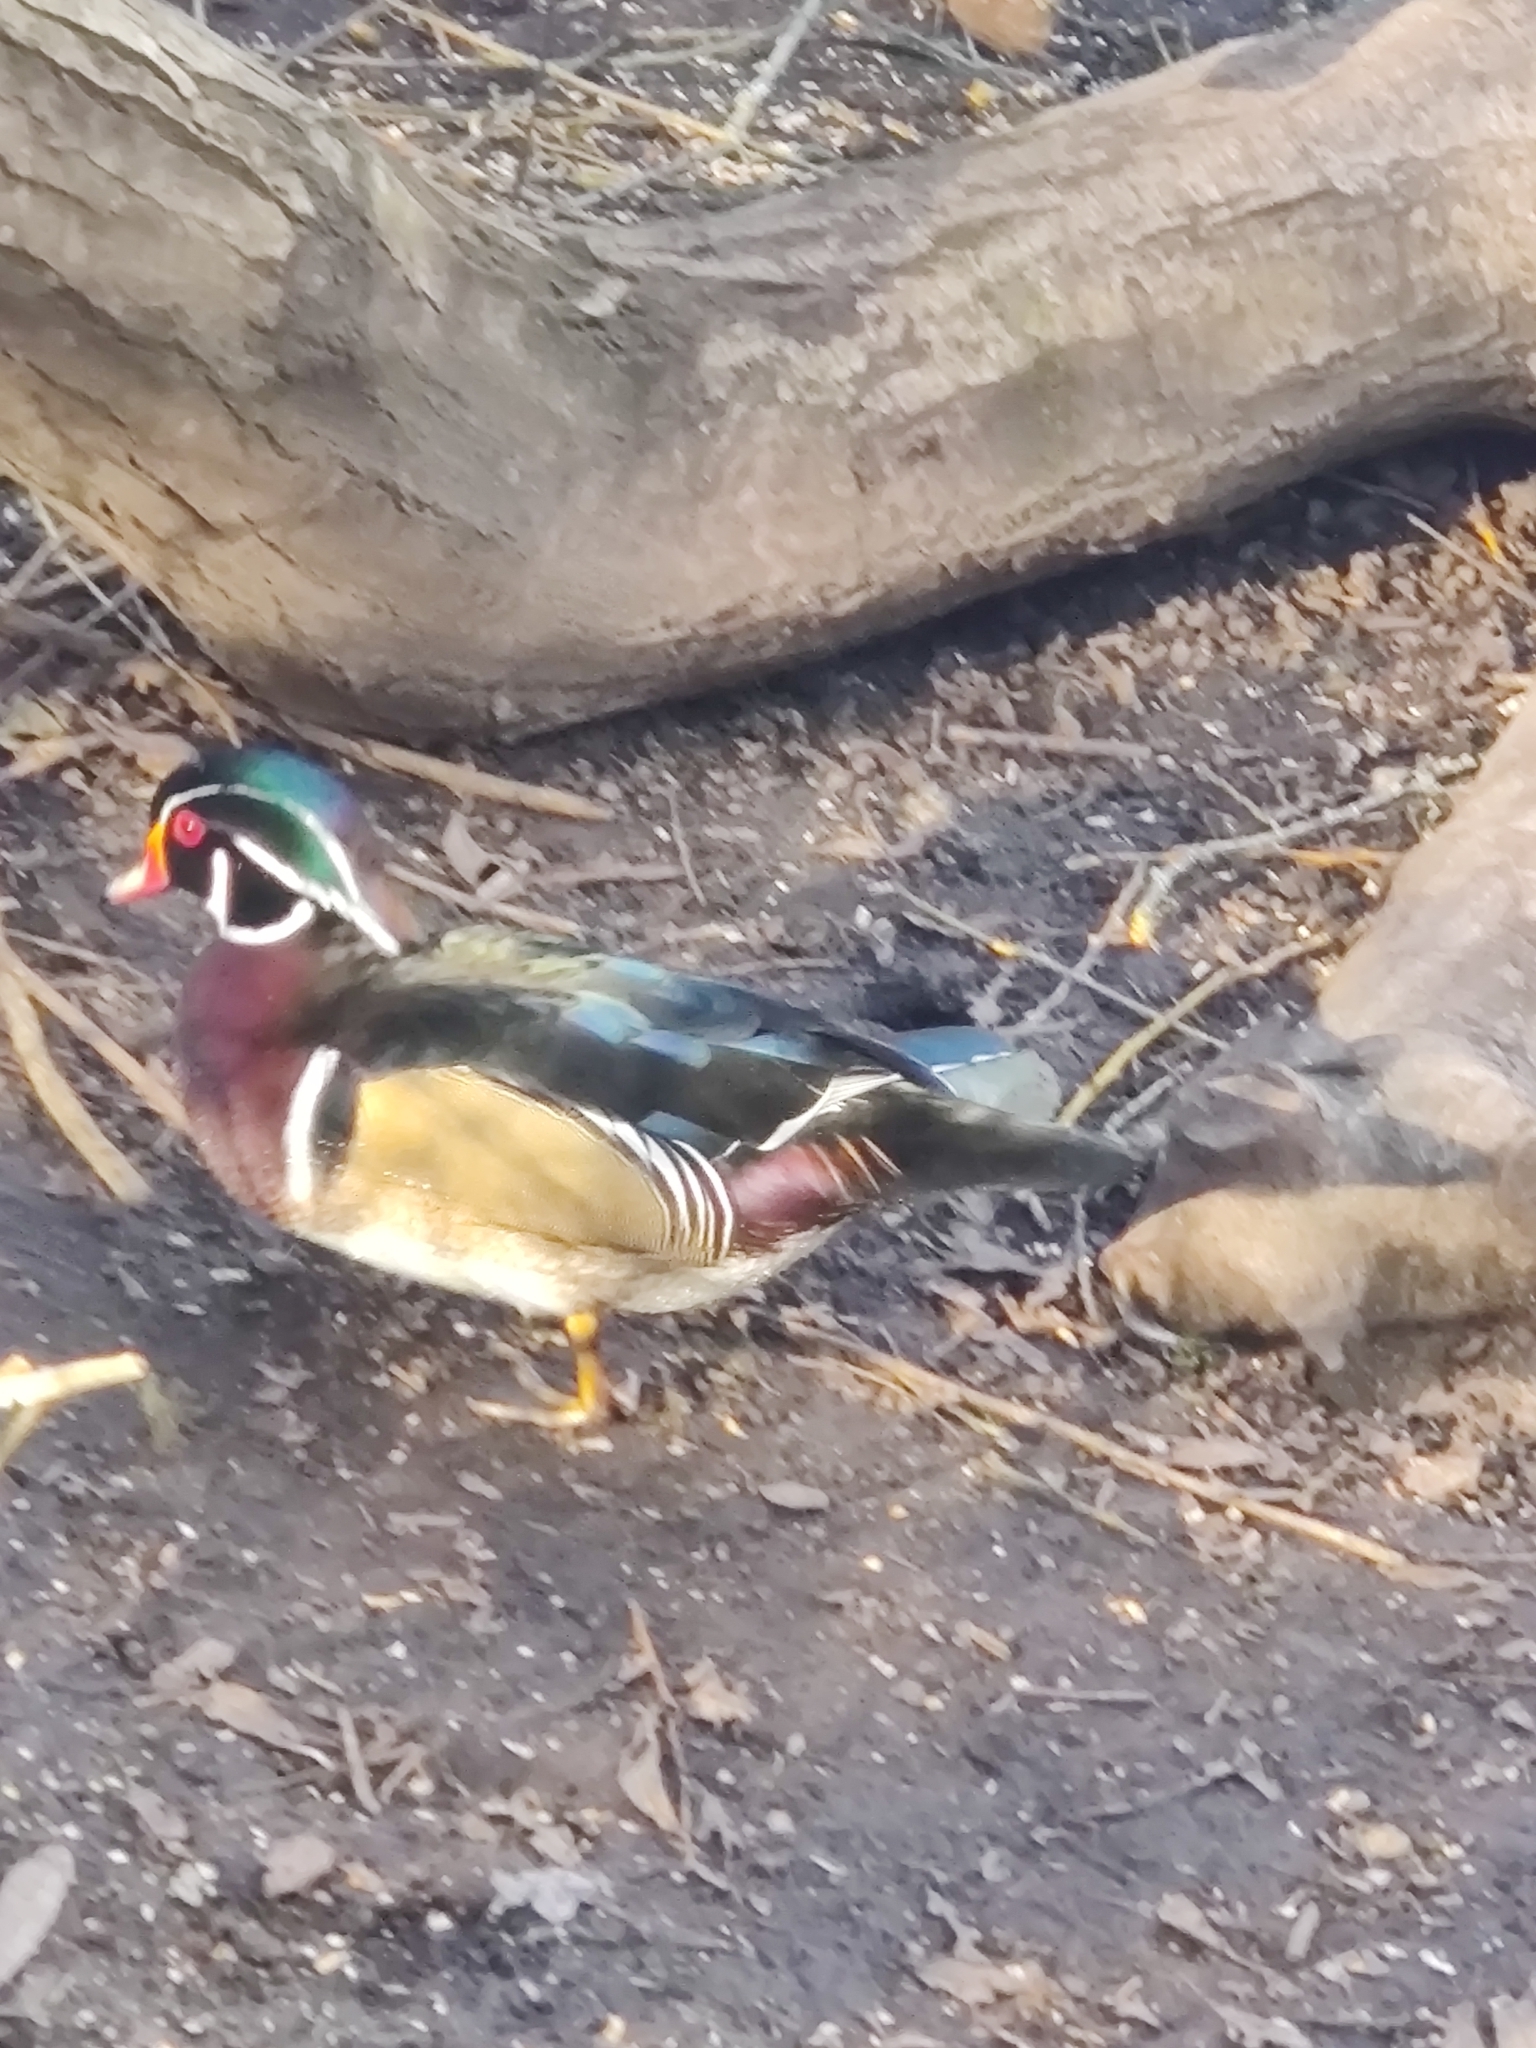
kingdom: Animalia
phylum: Chordata
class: Aves
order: Anseriformes
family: Anatidae
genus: Aix
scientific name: Aix sponsa
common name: Wood duck
